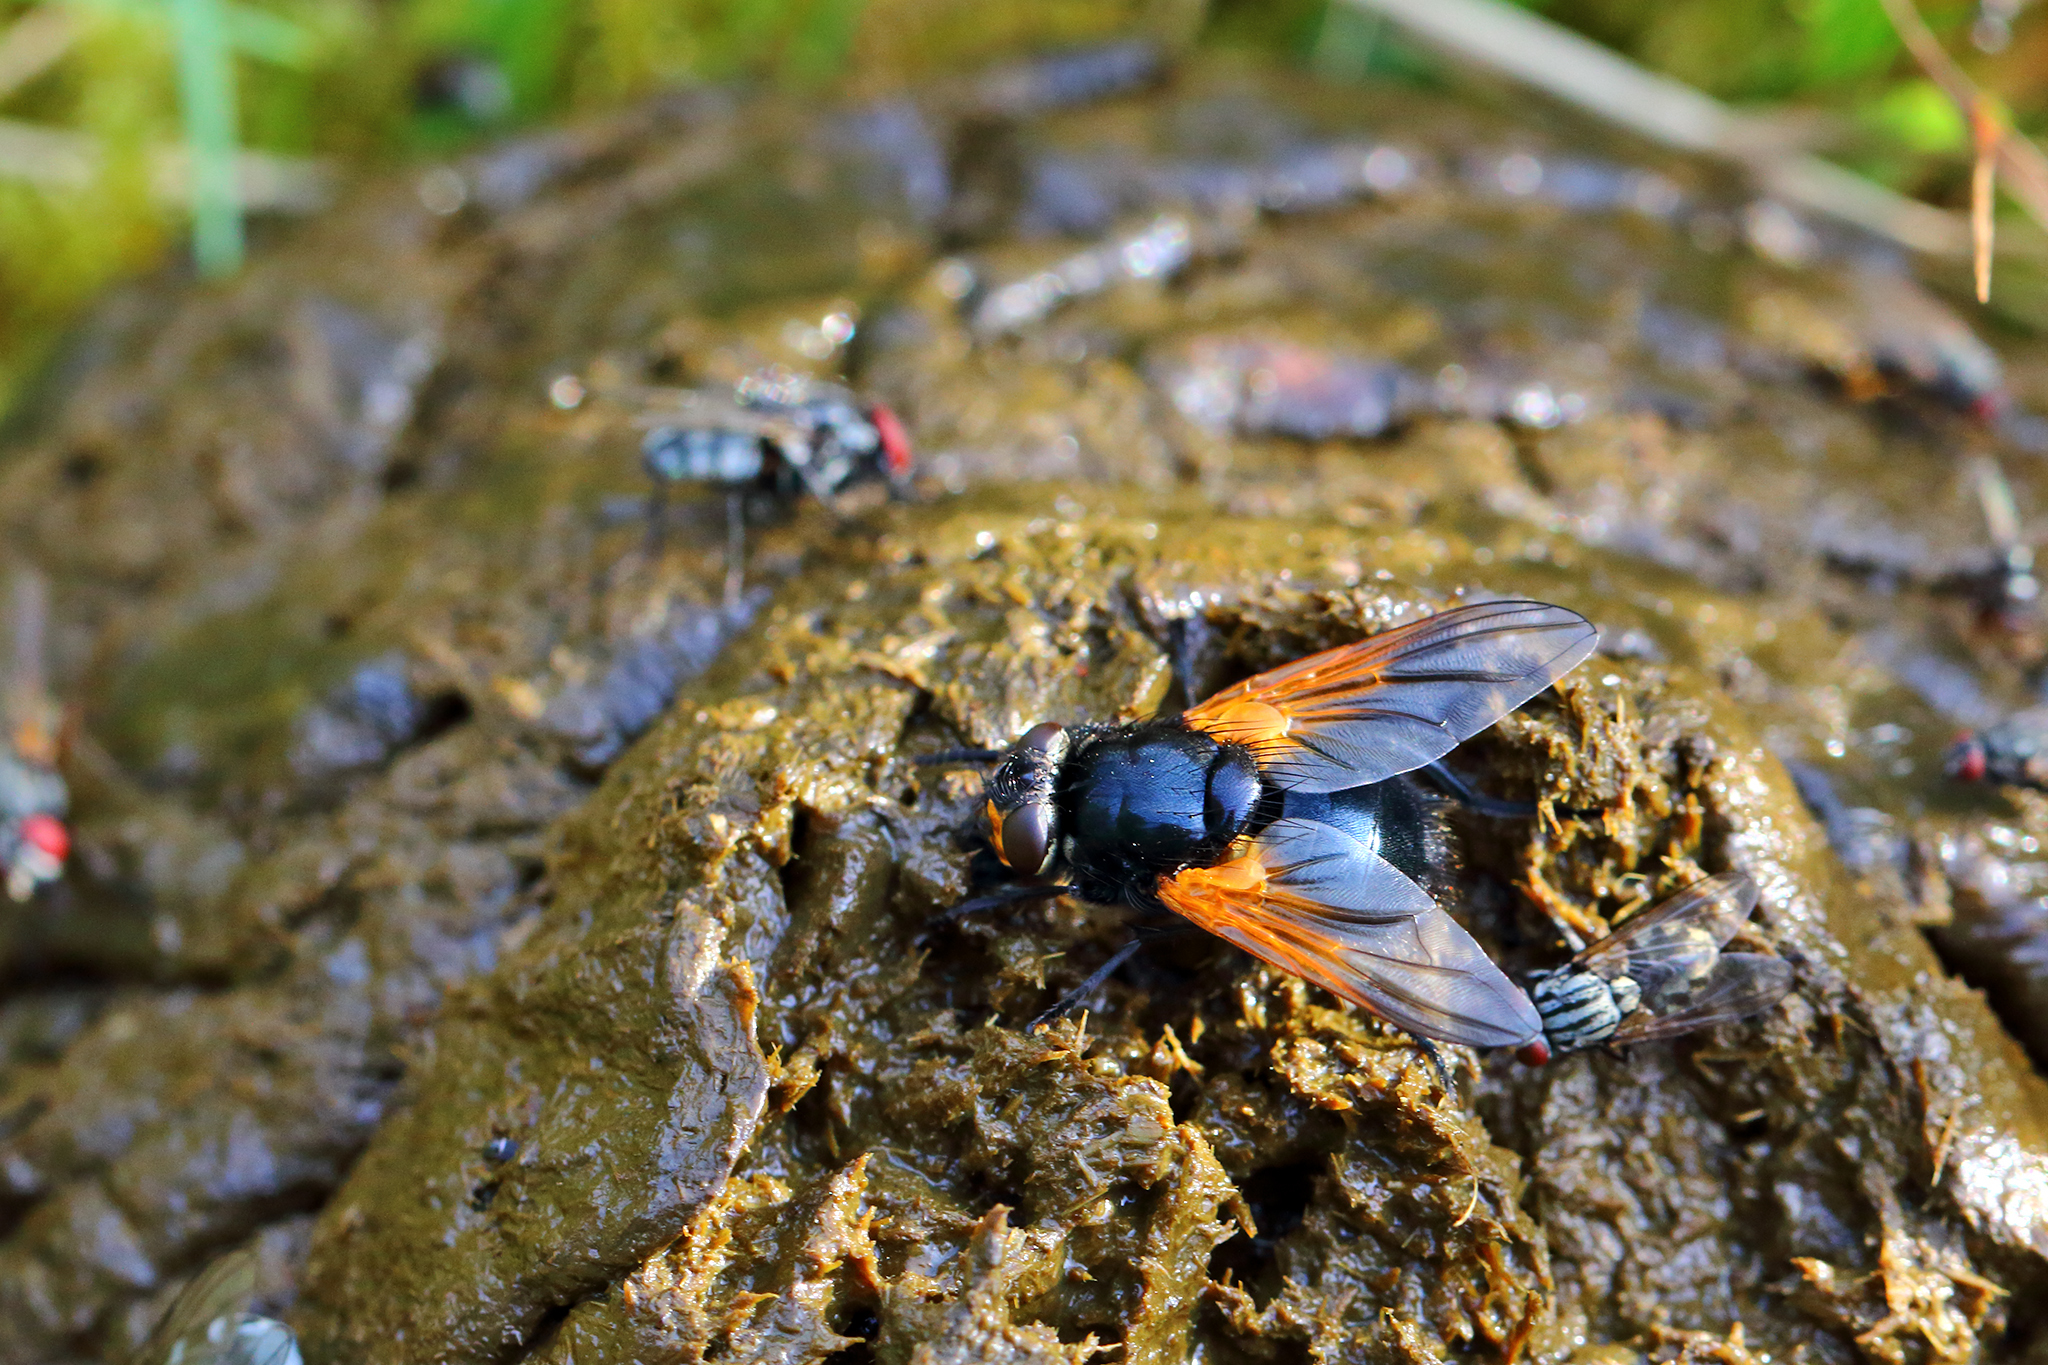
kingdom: Animalia
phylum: Arthropoda
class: Insecta
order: Diptera
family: Muscidae
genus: Mesembrina
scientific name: Mesembrina meridiana
